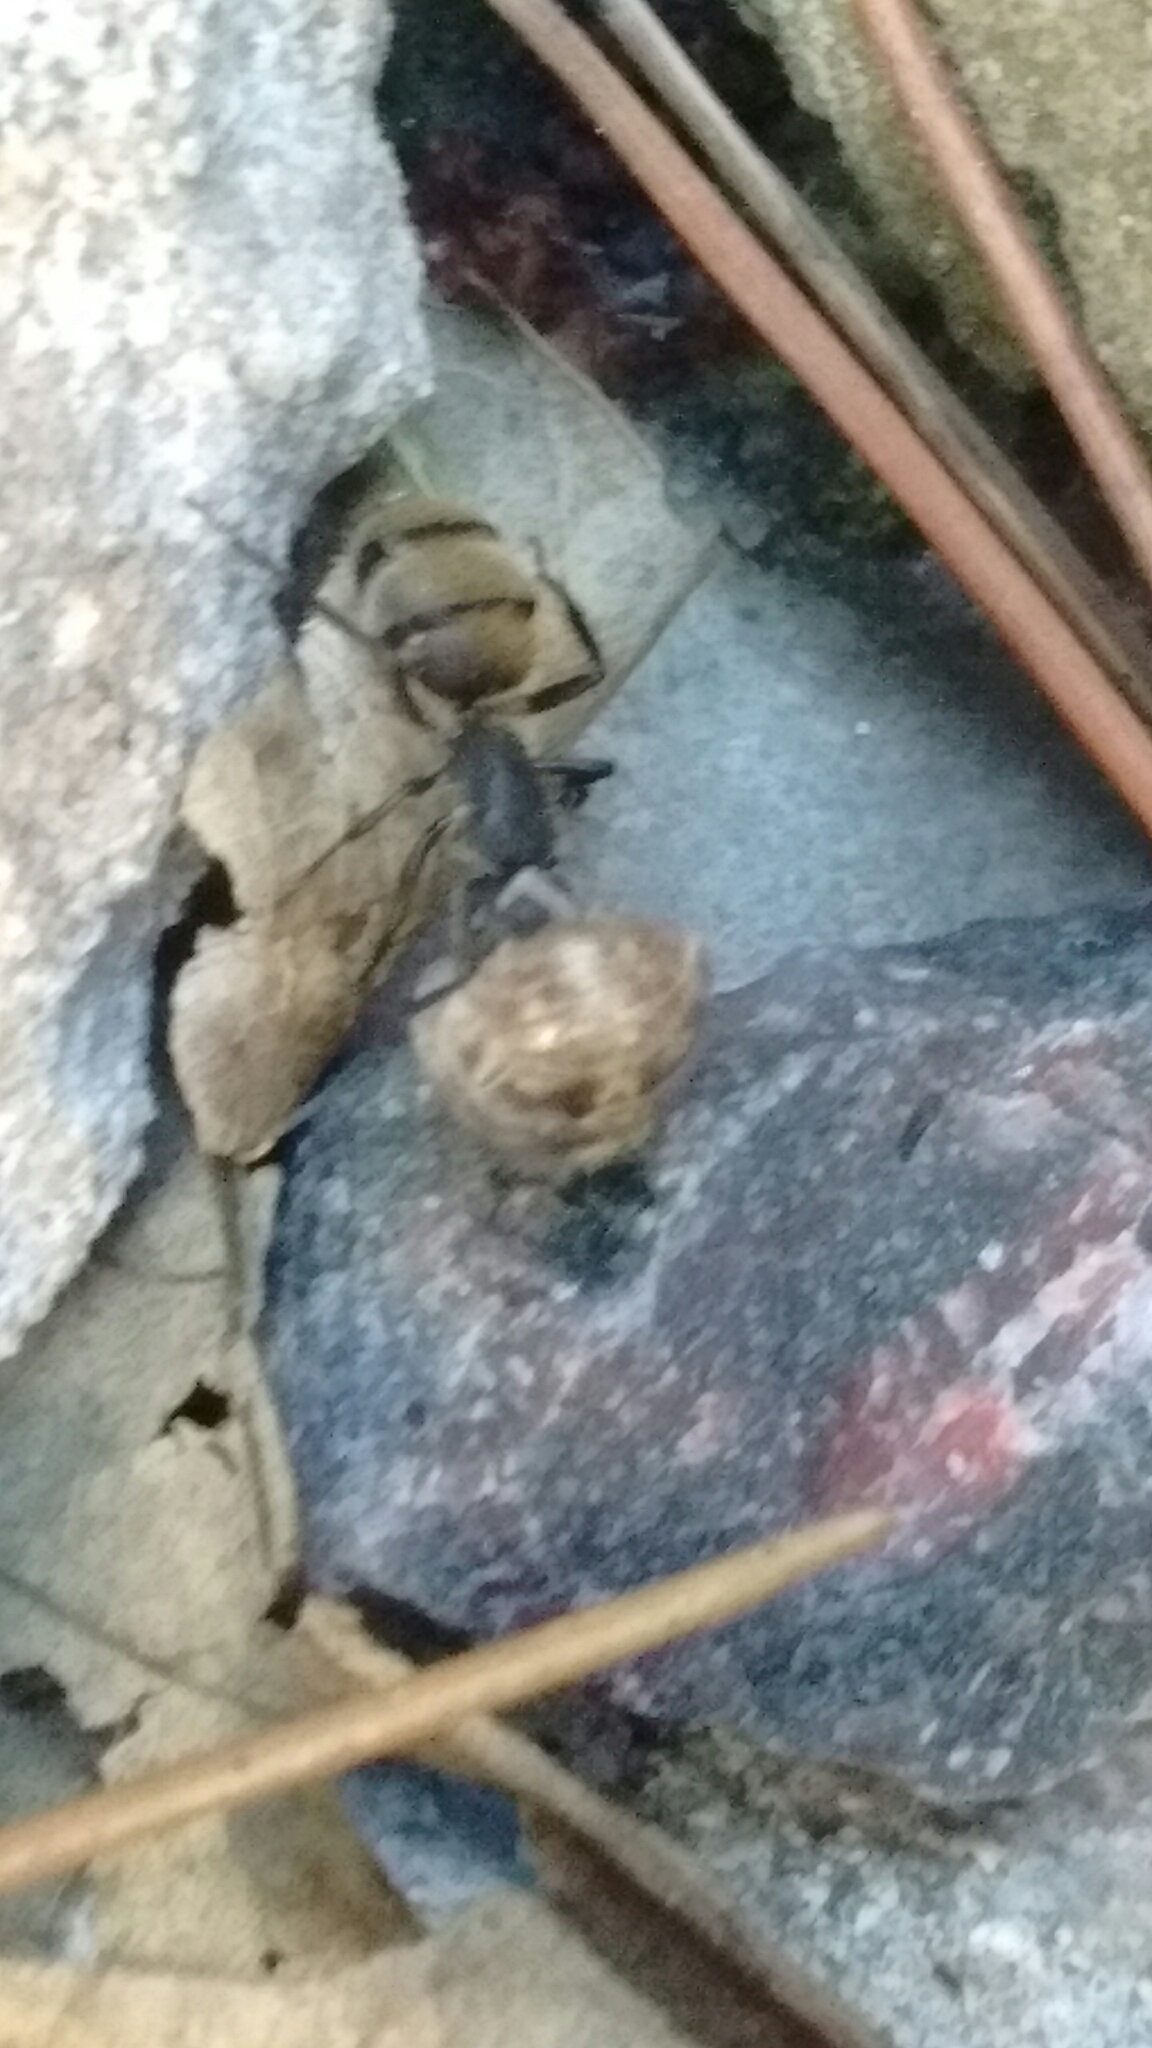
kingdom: Animalia
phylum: Arthropoda
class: Insecta
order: Hymenoptera
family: Formicidae
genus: Camponotus
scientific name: Camponotus mus
